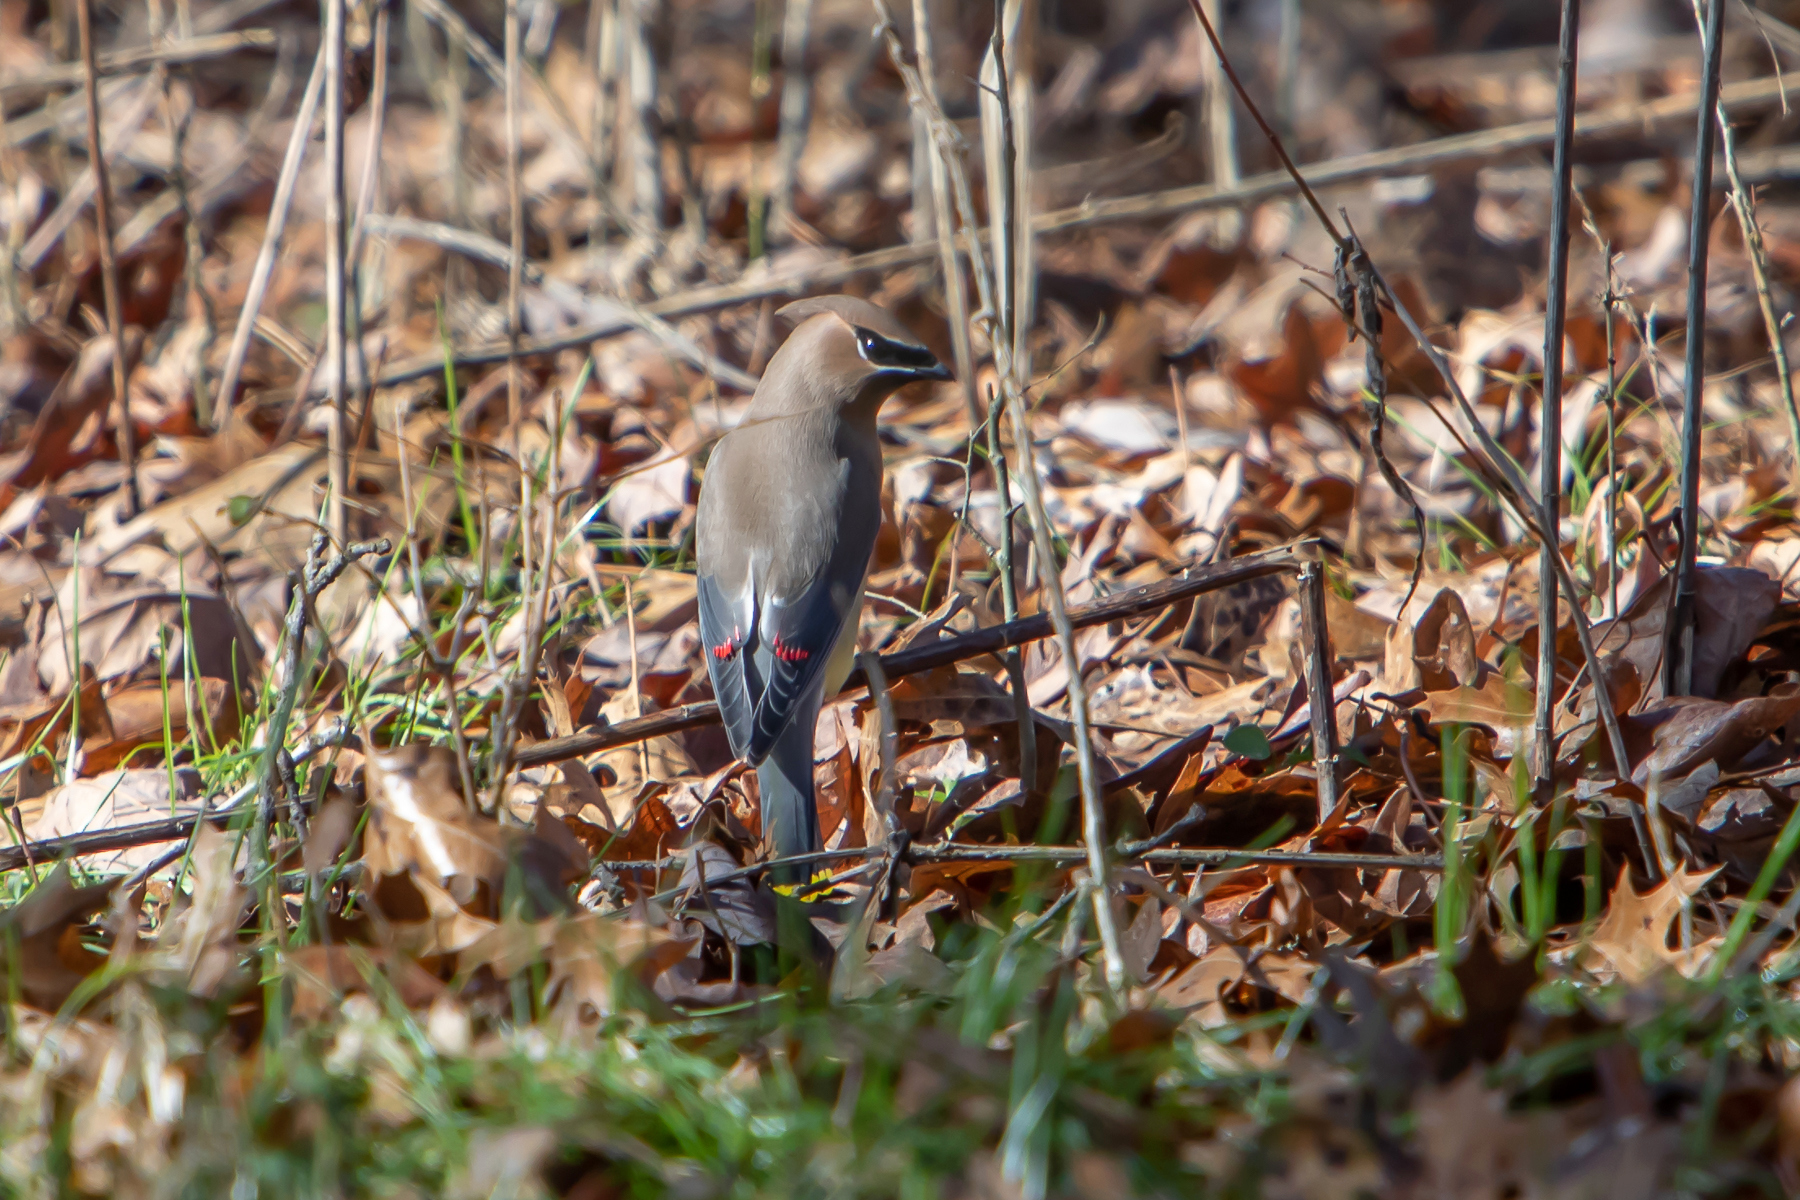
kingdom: Animalia
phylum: Chordata
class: Aves
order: Passeriformes
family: Bombycillidae
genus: Bombycilla
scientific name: Bombycilla cedrorum
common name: Cedar waxwing
